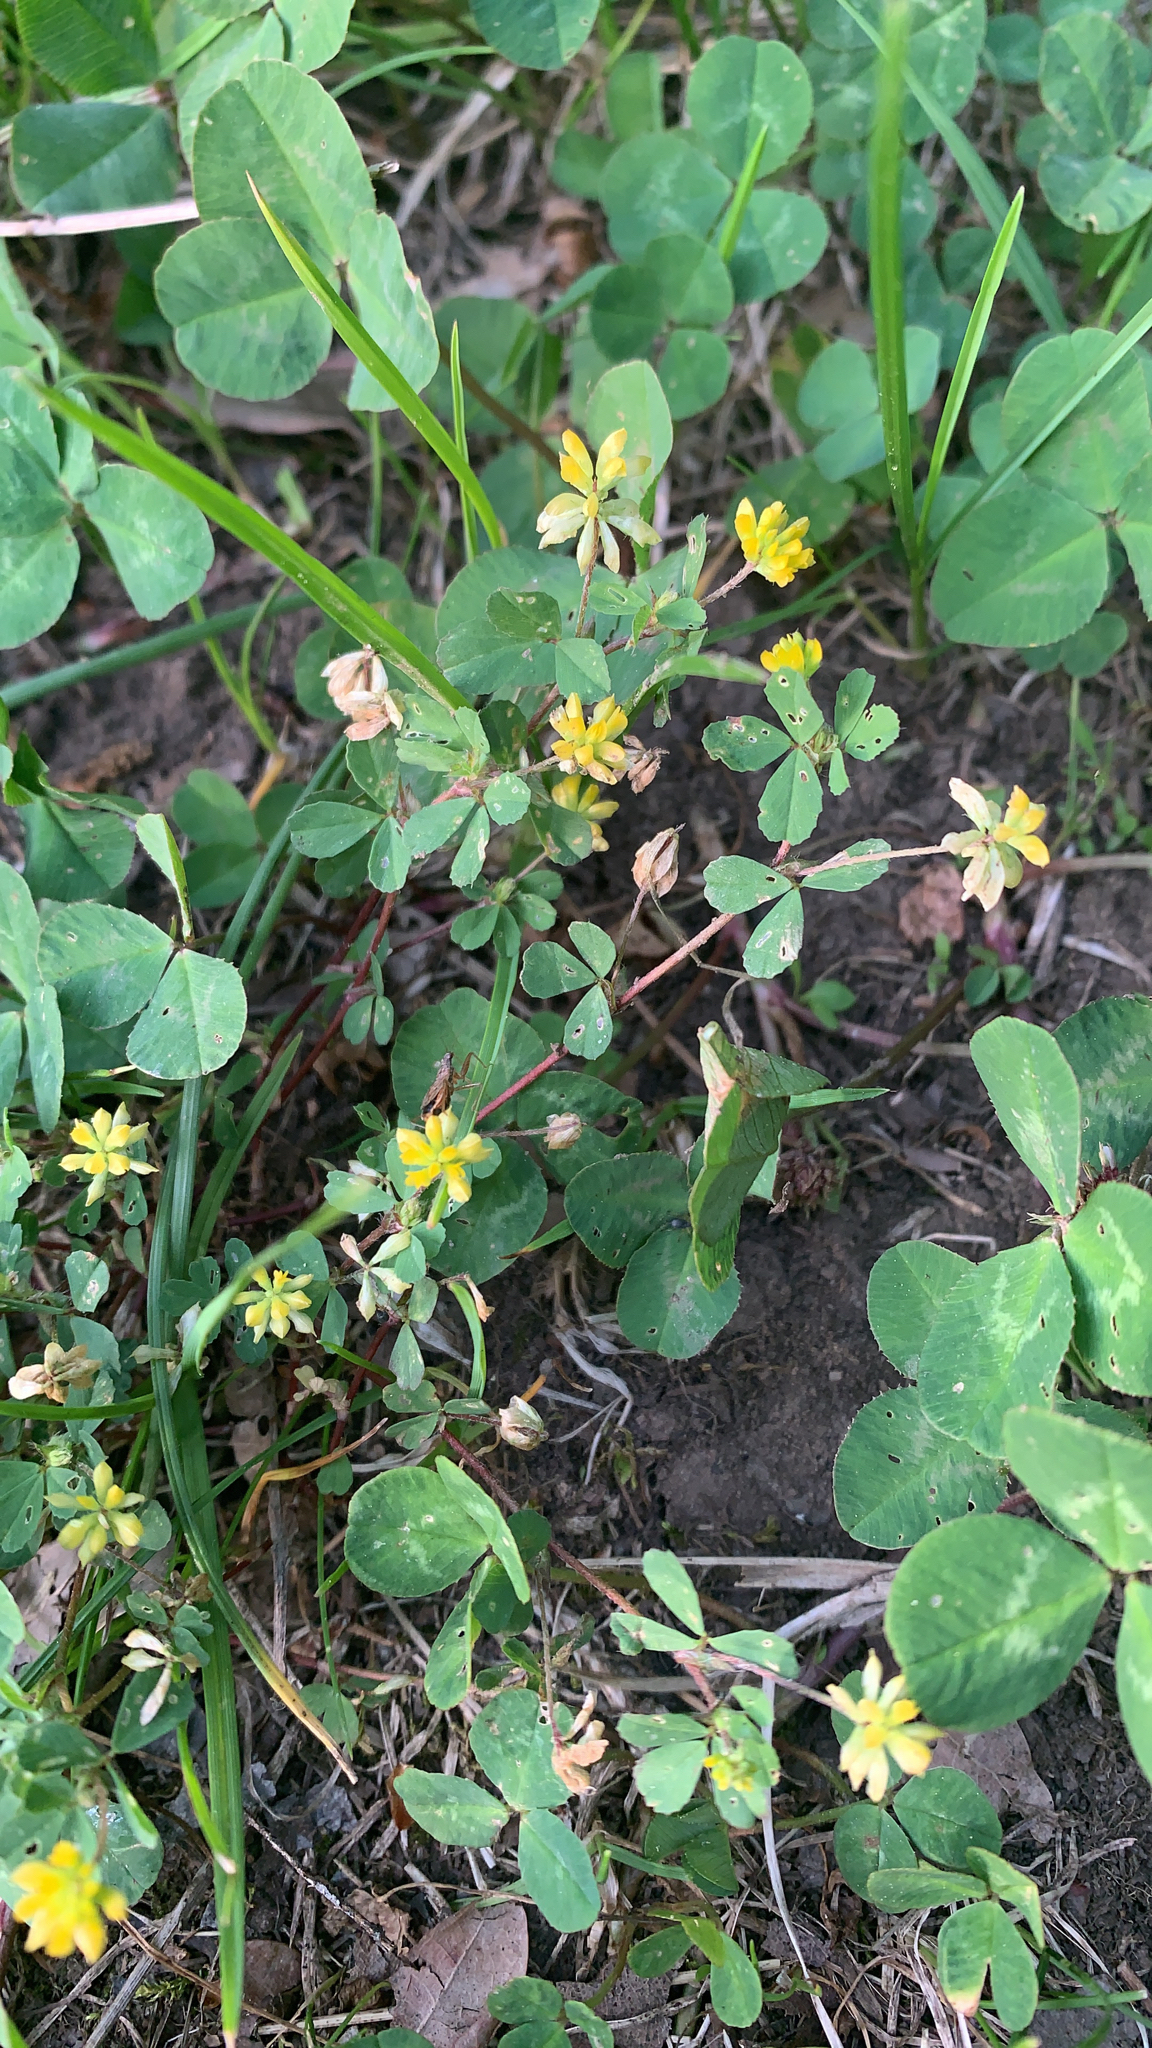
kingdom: Plantae
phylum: Tracheophyta
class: Magnoliopsida
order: Fabales
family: Fabaceae
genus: Trifolium
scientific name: Trifolium dubium
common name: Suckling clover
